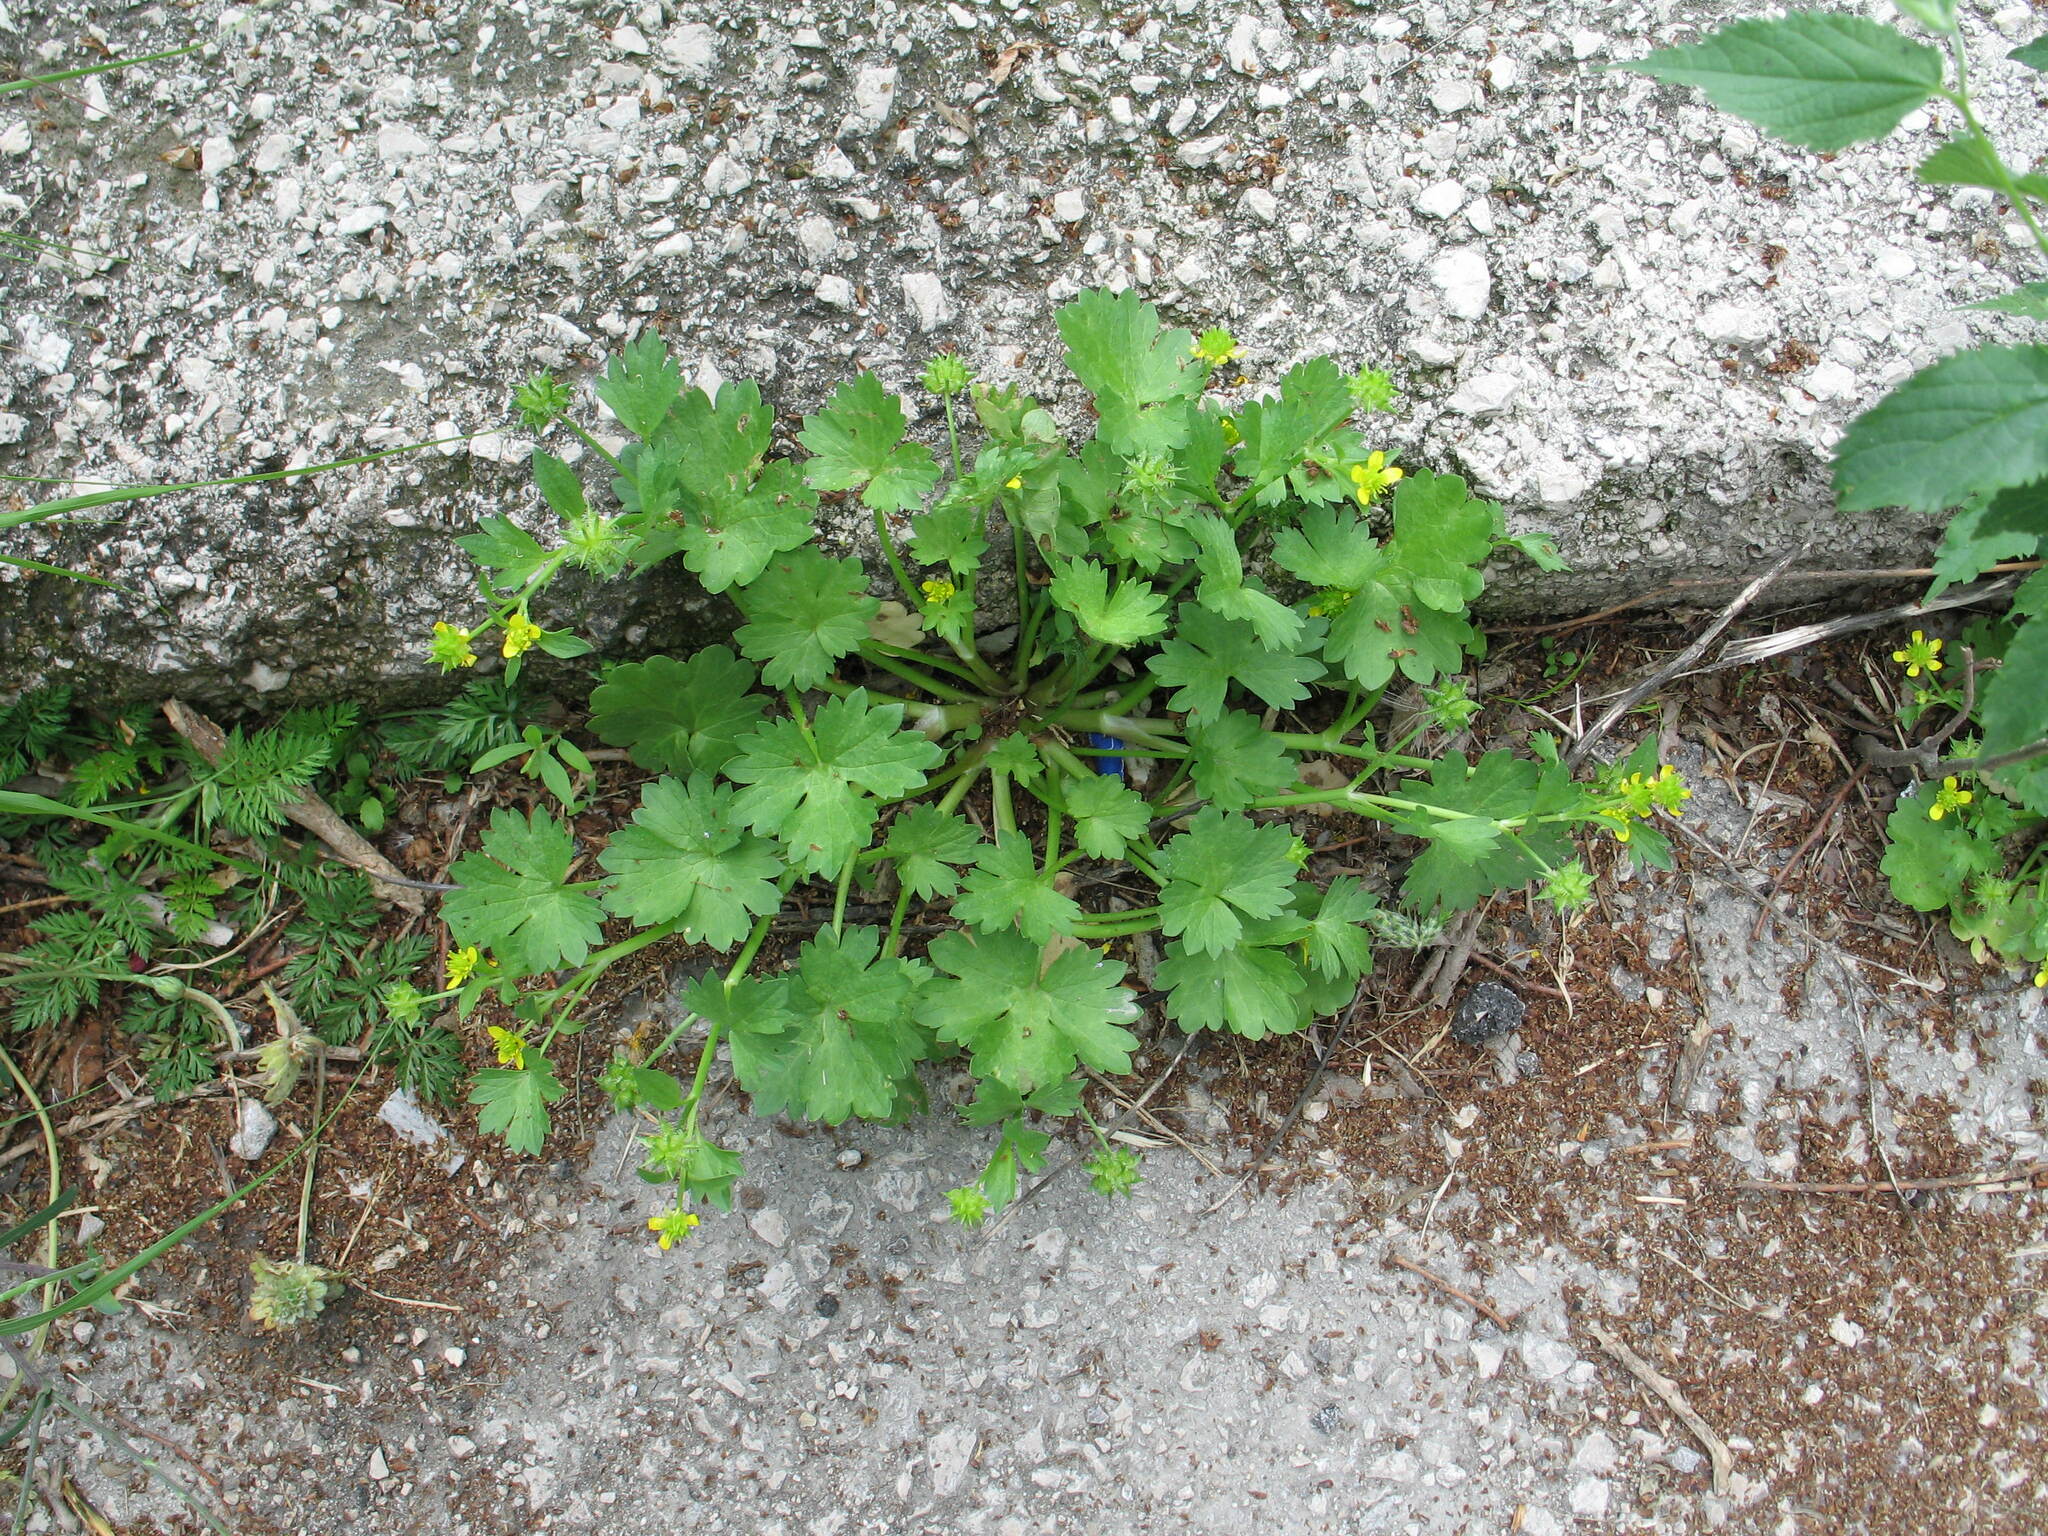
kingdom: Plantae
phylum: Tracheophyta
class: Magnoliopsida
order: Ranunculales
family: Ranunculaceae
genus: Ranunculus
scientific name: Ranunculus muricatus
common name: Rough-fruited buttercup
